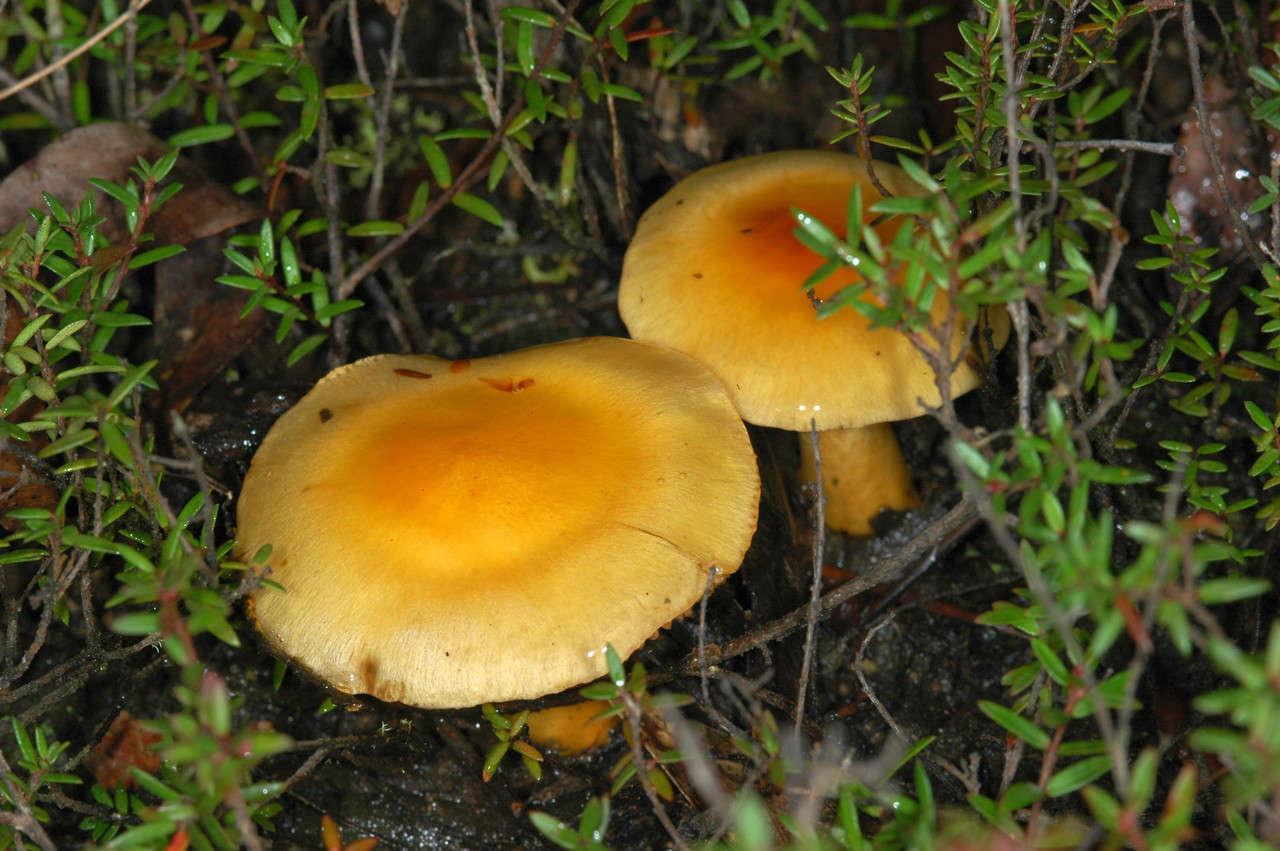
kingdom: Fungi
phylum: Basidiomycota
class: Agaricomycetes
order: Agaricales
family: Cortinariaceae
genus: Cortinarius
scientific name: Cortinarius sinapicolor
